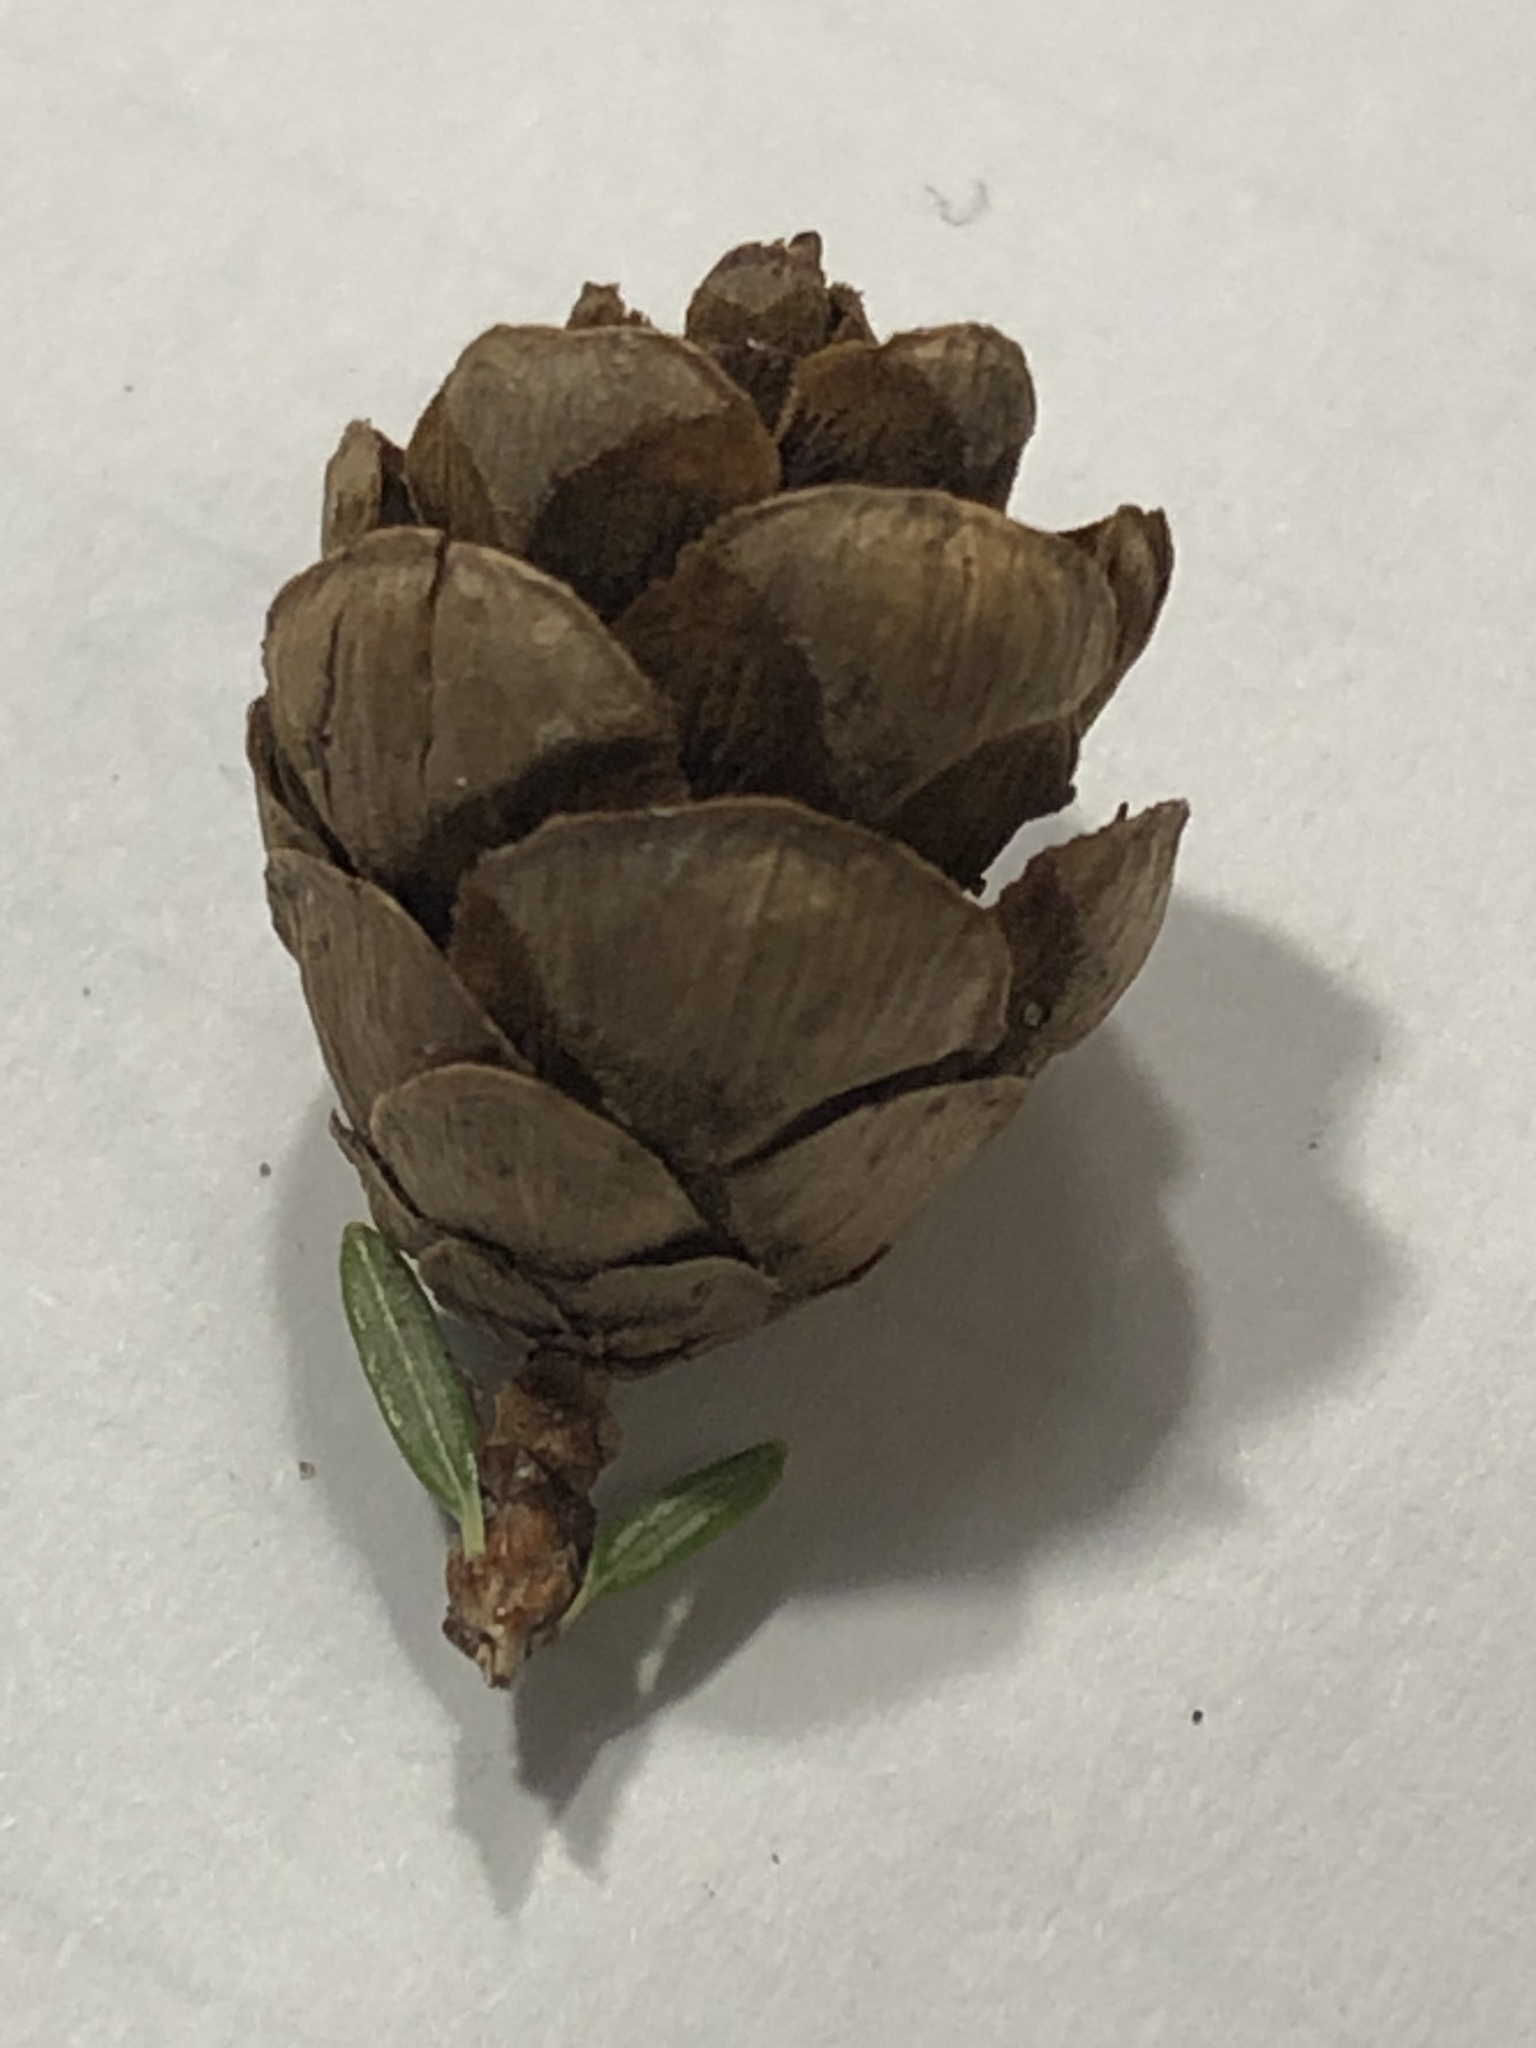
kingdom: Plantae
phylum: Tracheophyta
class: Pinopsida
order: Pinales
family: Pinaceae
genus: Tsuga
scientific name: Tsuga canadensis
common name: Eastern hemlock
